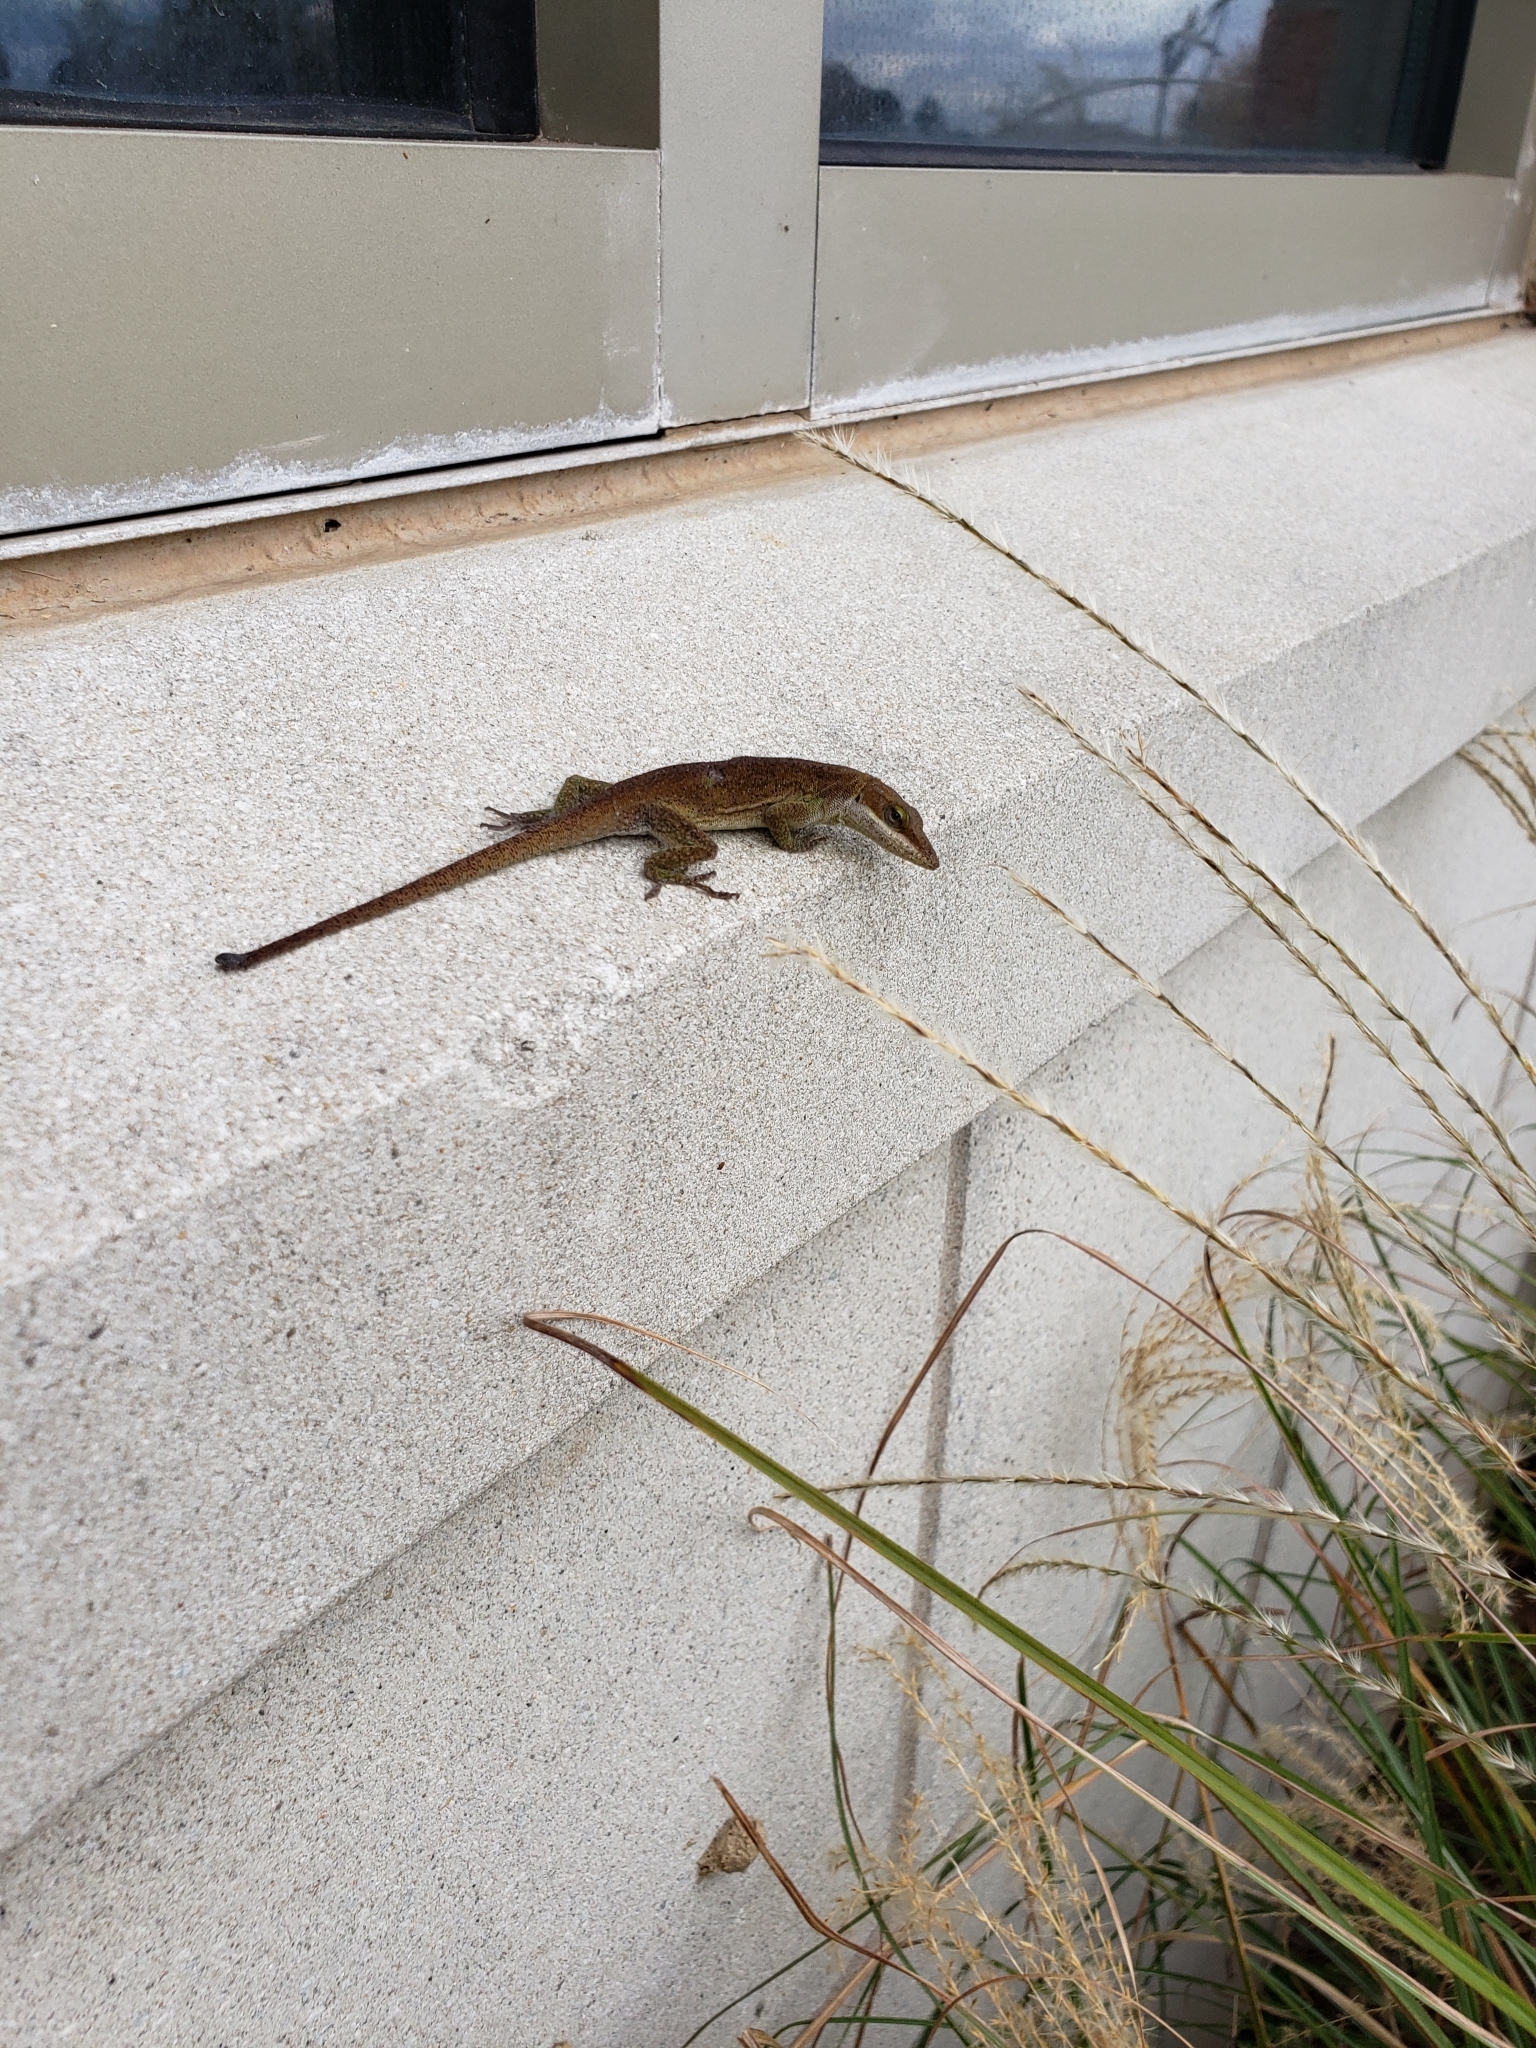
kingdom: Animalia
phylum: Chordata
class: Squamata
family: Dactyloidae
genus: Anolis
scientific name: Anolis carolinensis
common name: Green anole
